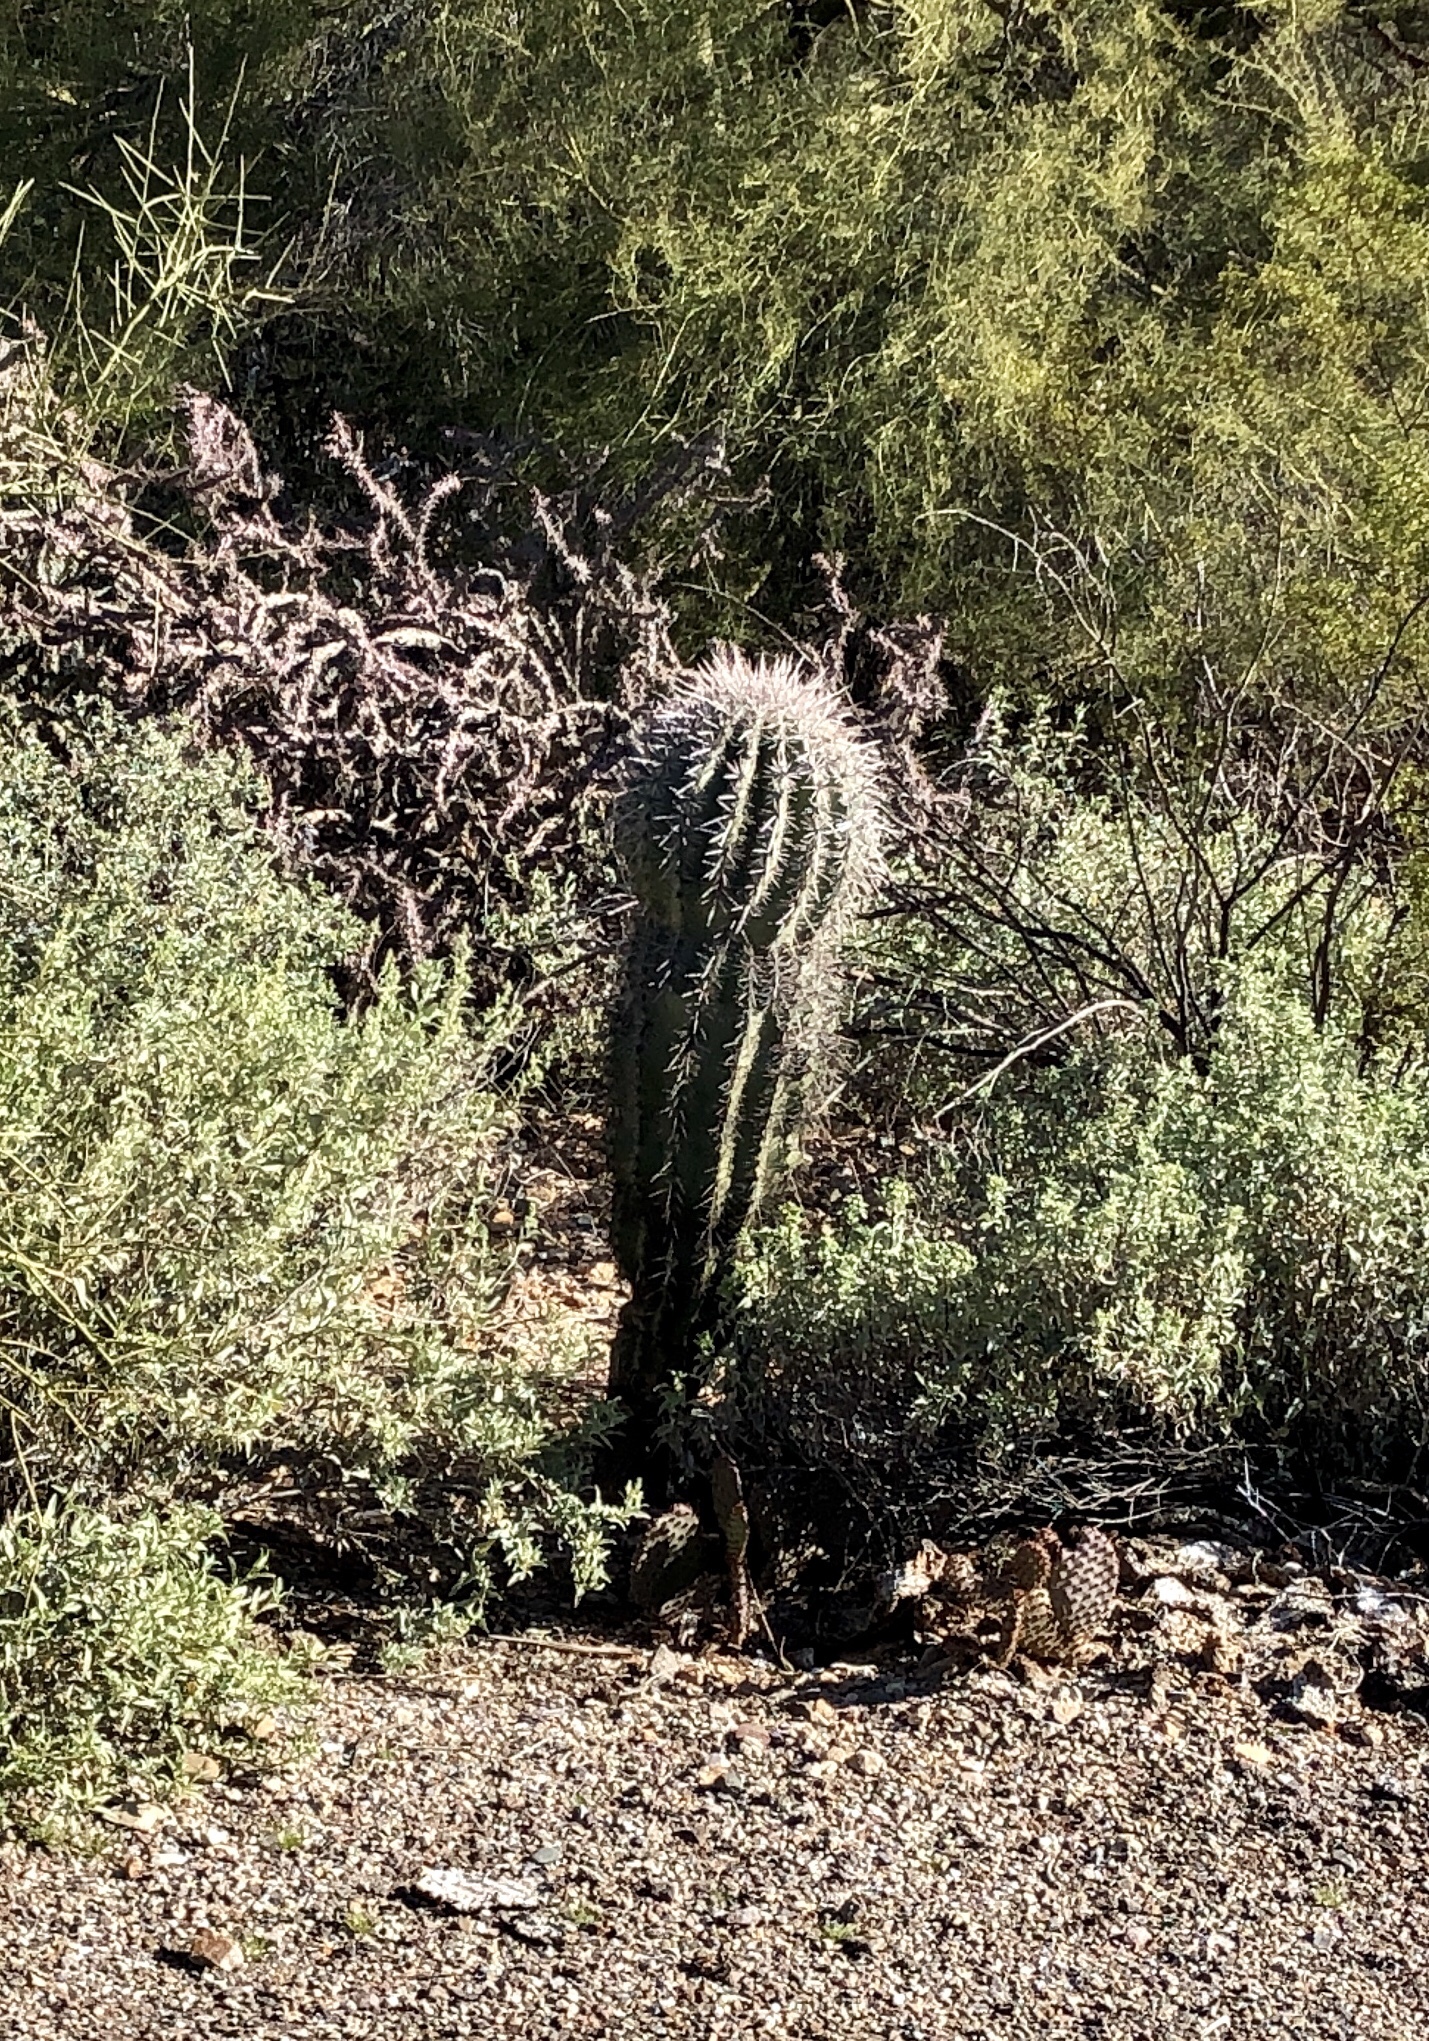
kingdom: Plantae
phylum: Tracheophyta
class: Magnoliopsida
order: Caryophyllales
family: Cactaceae
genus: Carnegiea
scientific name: Carnegiea gigantea
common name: Saguaro
